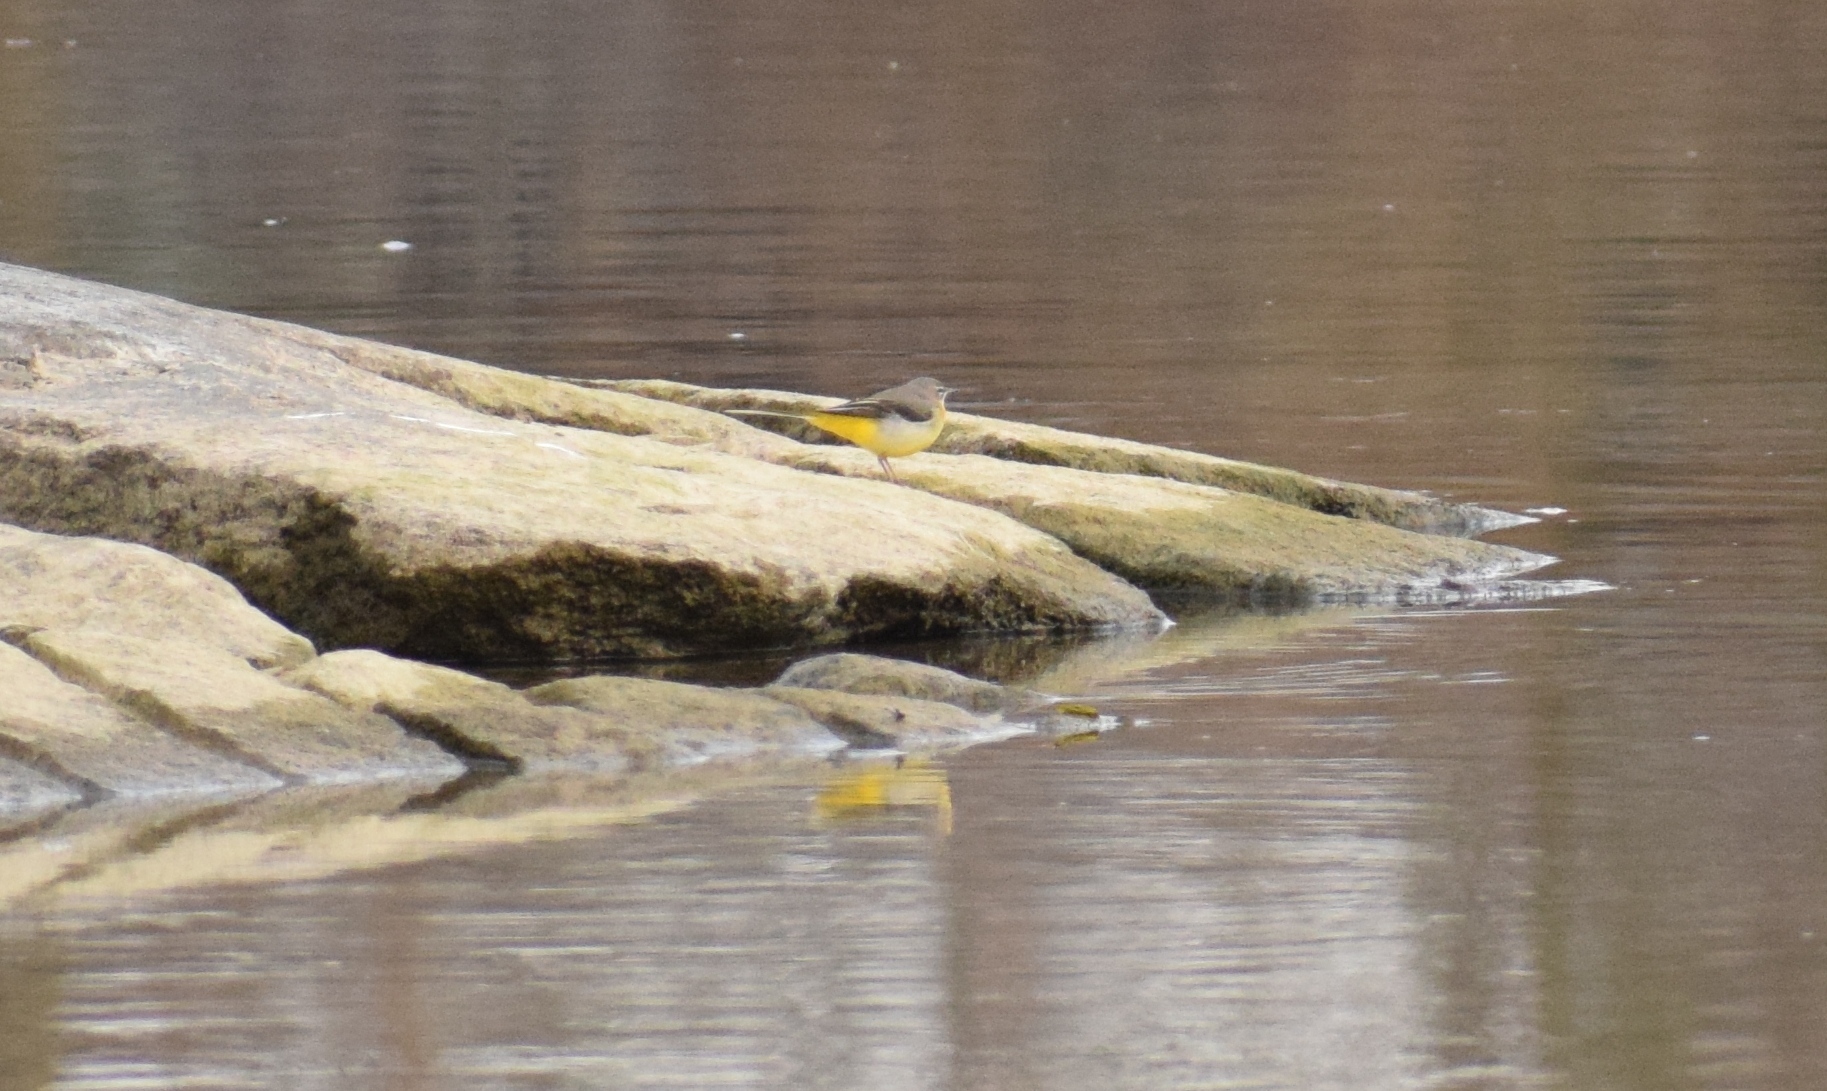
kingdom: Animalia
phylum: Chordata
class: Aves
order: Passeriformes
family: Motacillidae
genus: Motacilla
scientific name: Motacilla cinerea
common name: Grey wagtail
